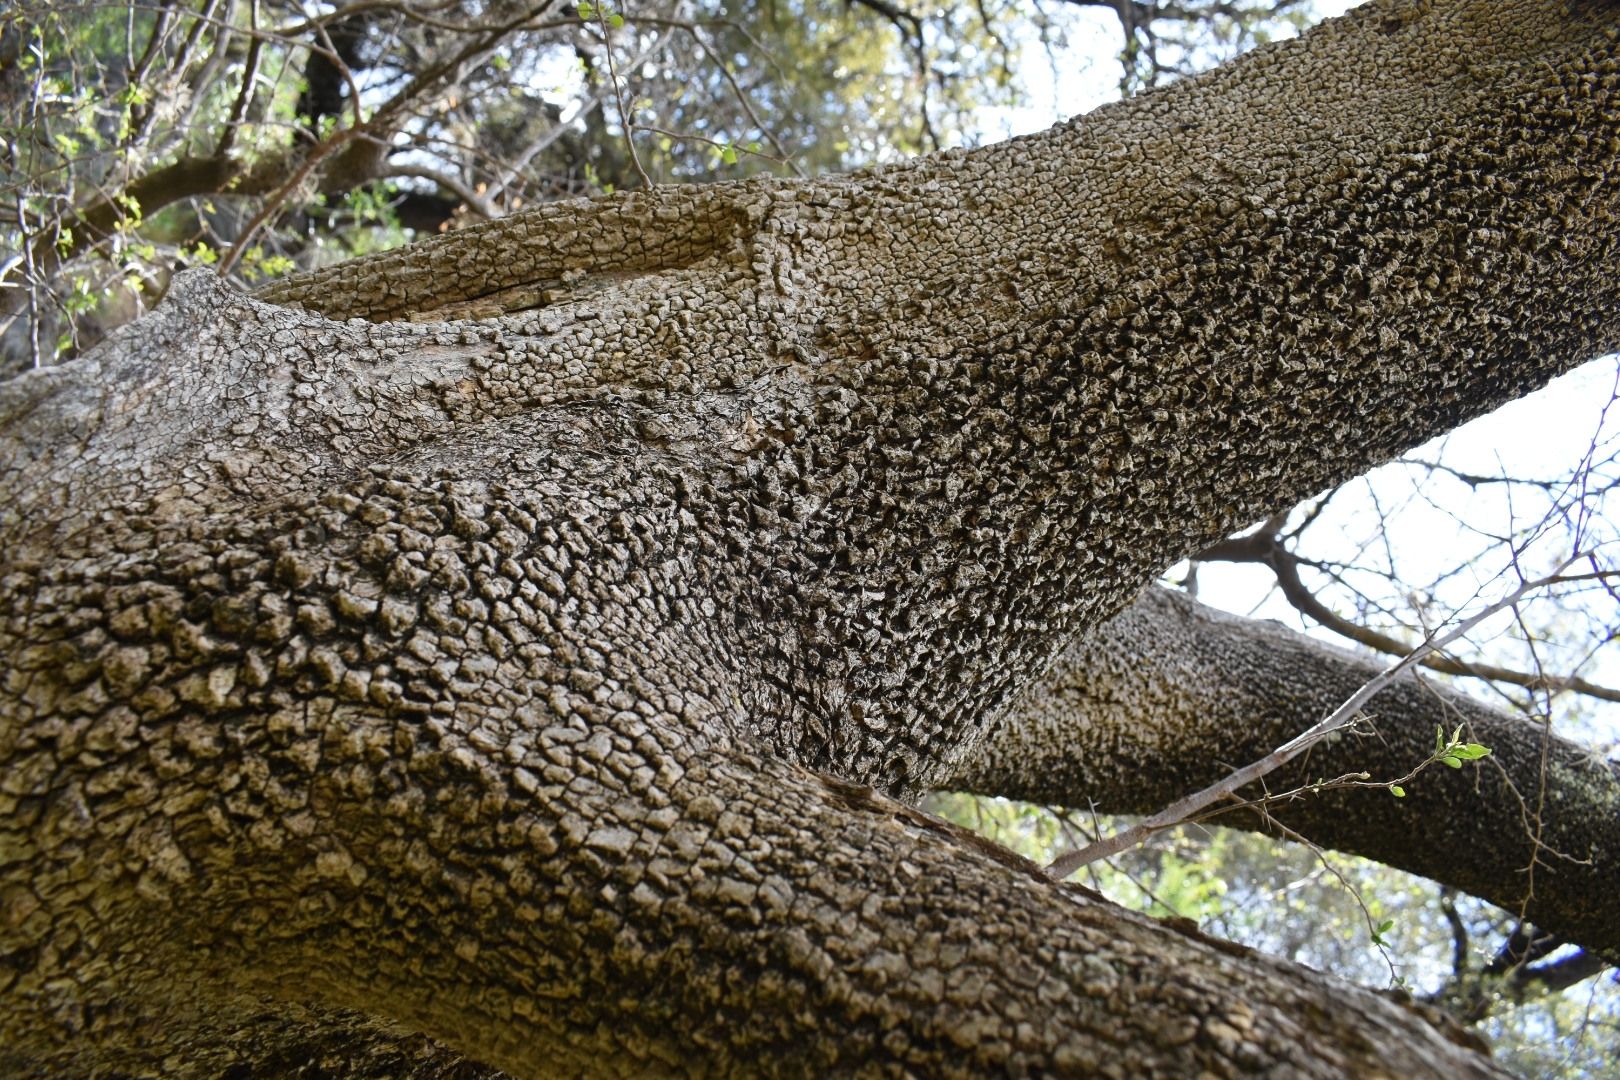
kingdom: Plantae
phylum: Tracheophyta
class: Magnoliopsida
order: Caryophyllales
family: Nyctaginaceae
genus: Bougainvillea
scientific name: Bougainvillea stipitata
